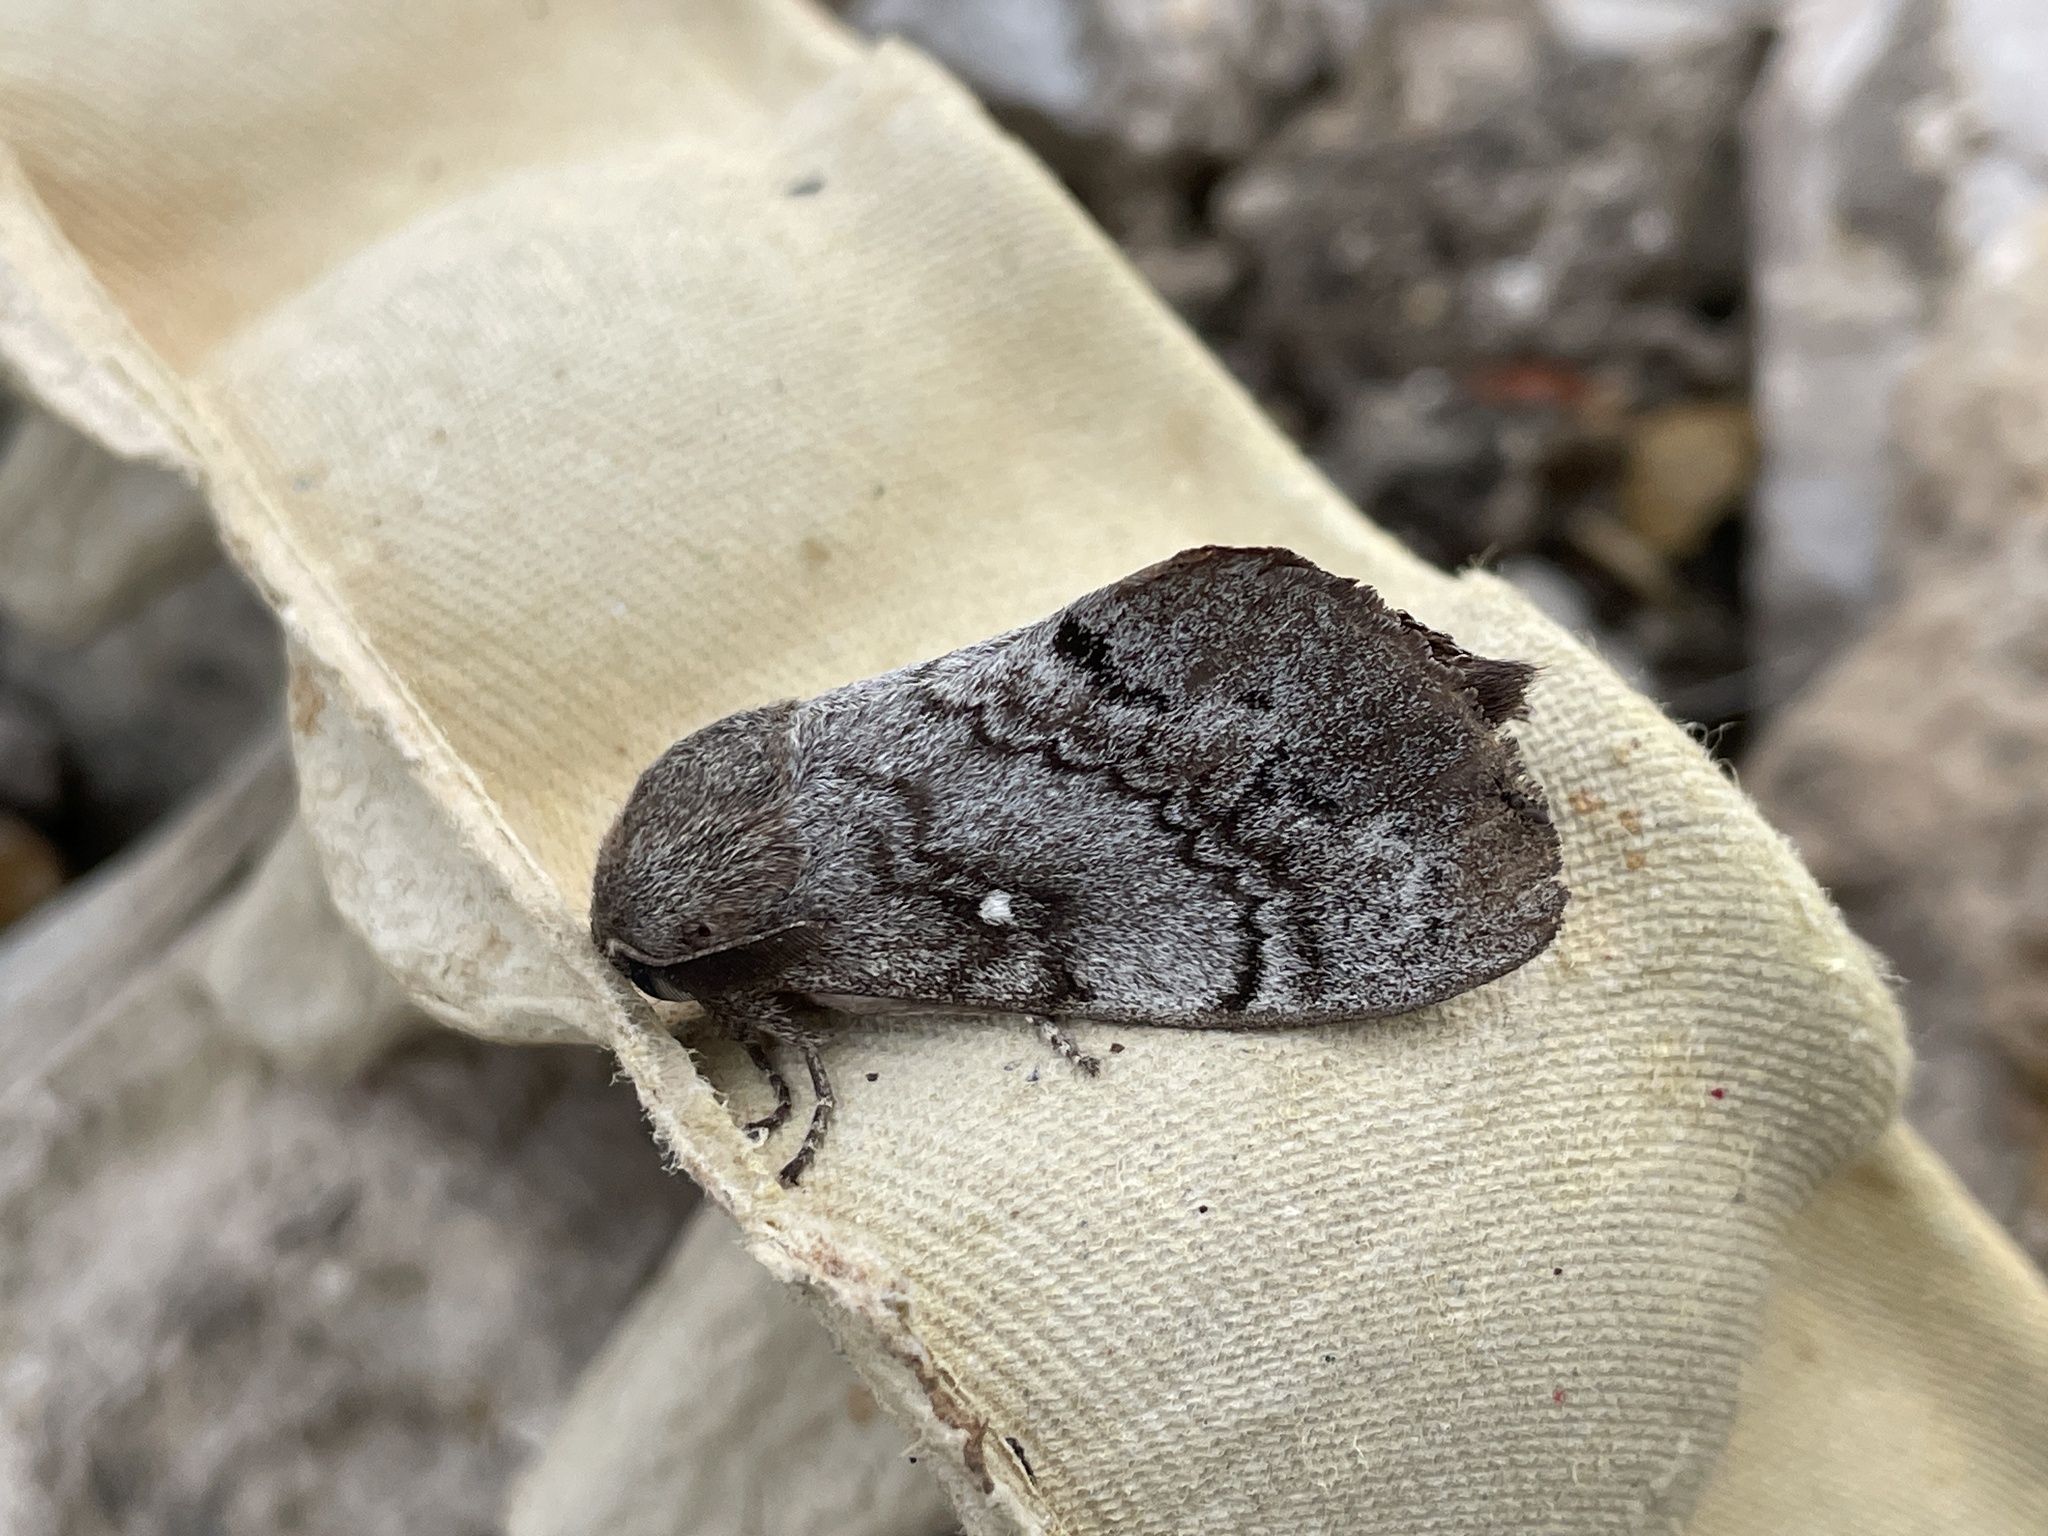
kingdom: Animalia
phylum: Arthropoda
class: Insecta
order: Lepidoptera
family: Lasiocampidae
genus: Dendrolimus
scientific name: Dendrolimus pini
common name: Pine-tree lappet
